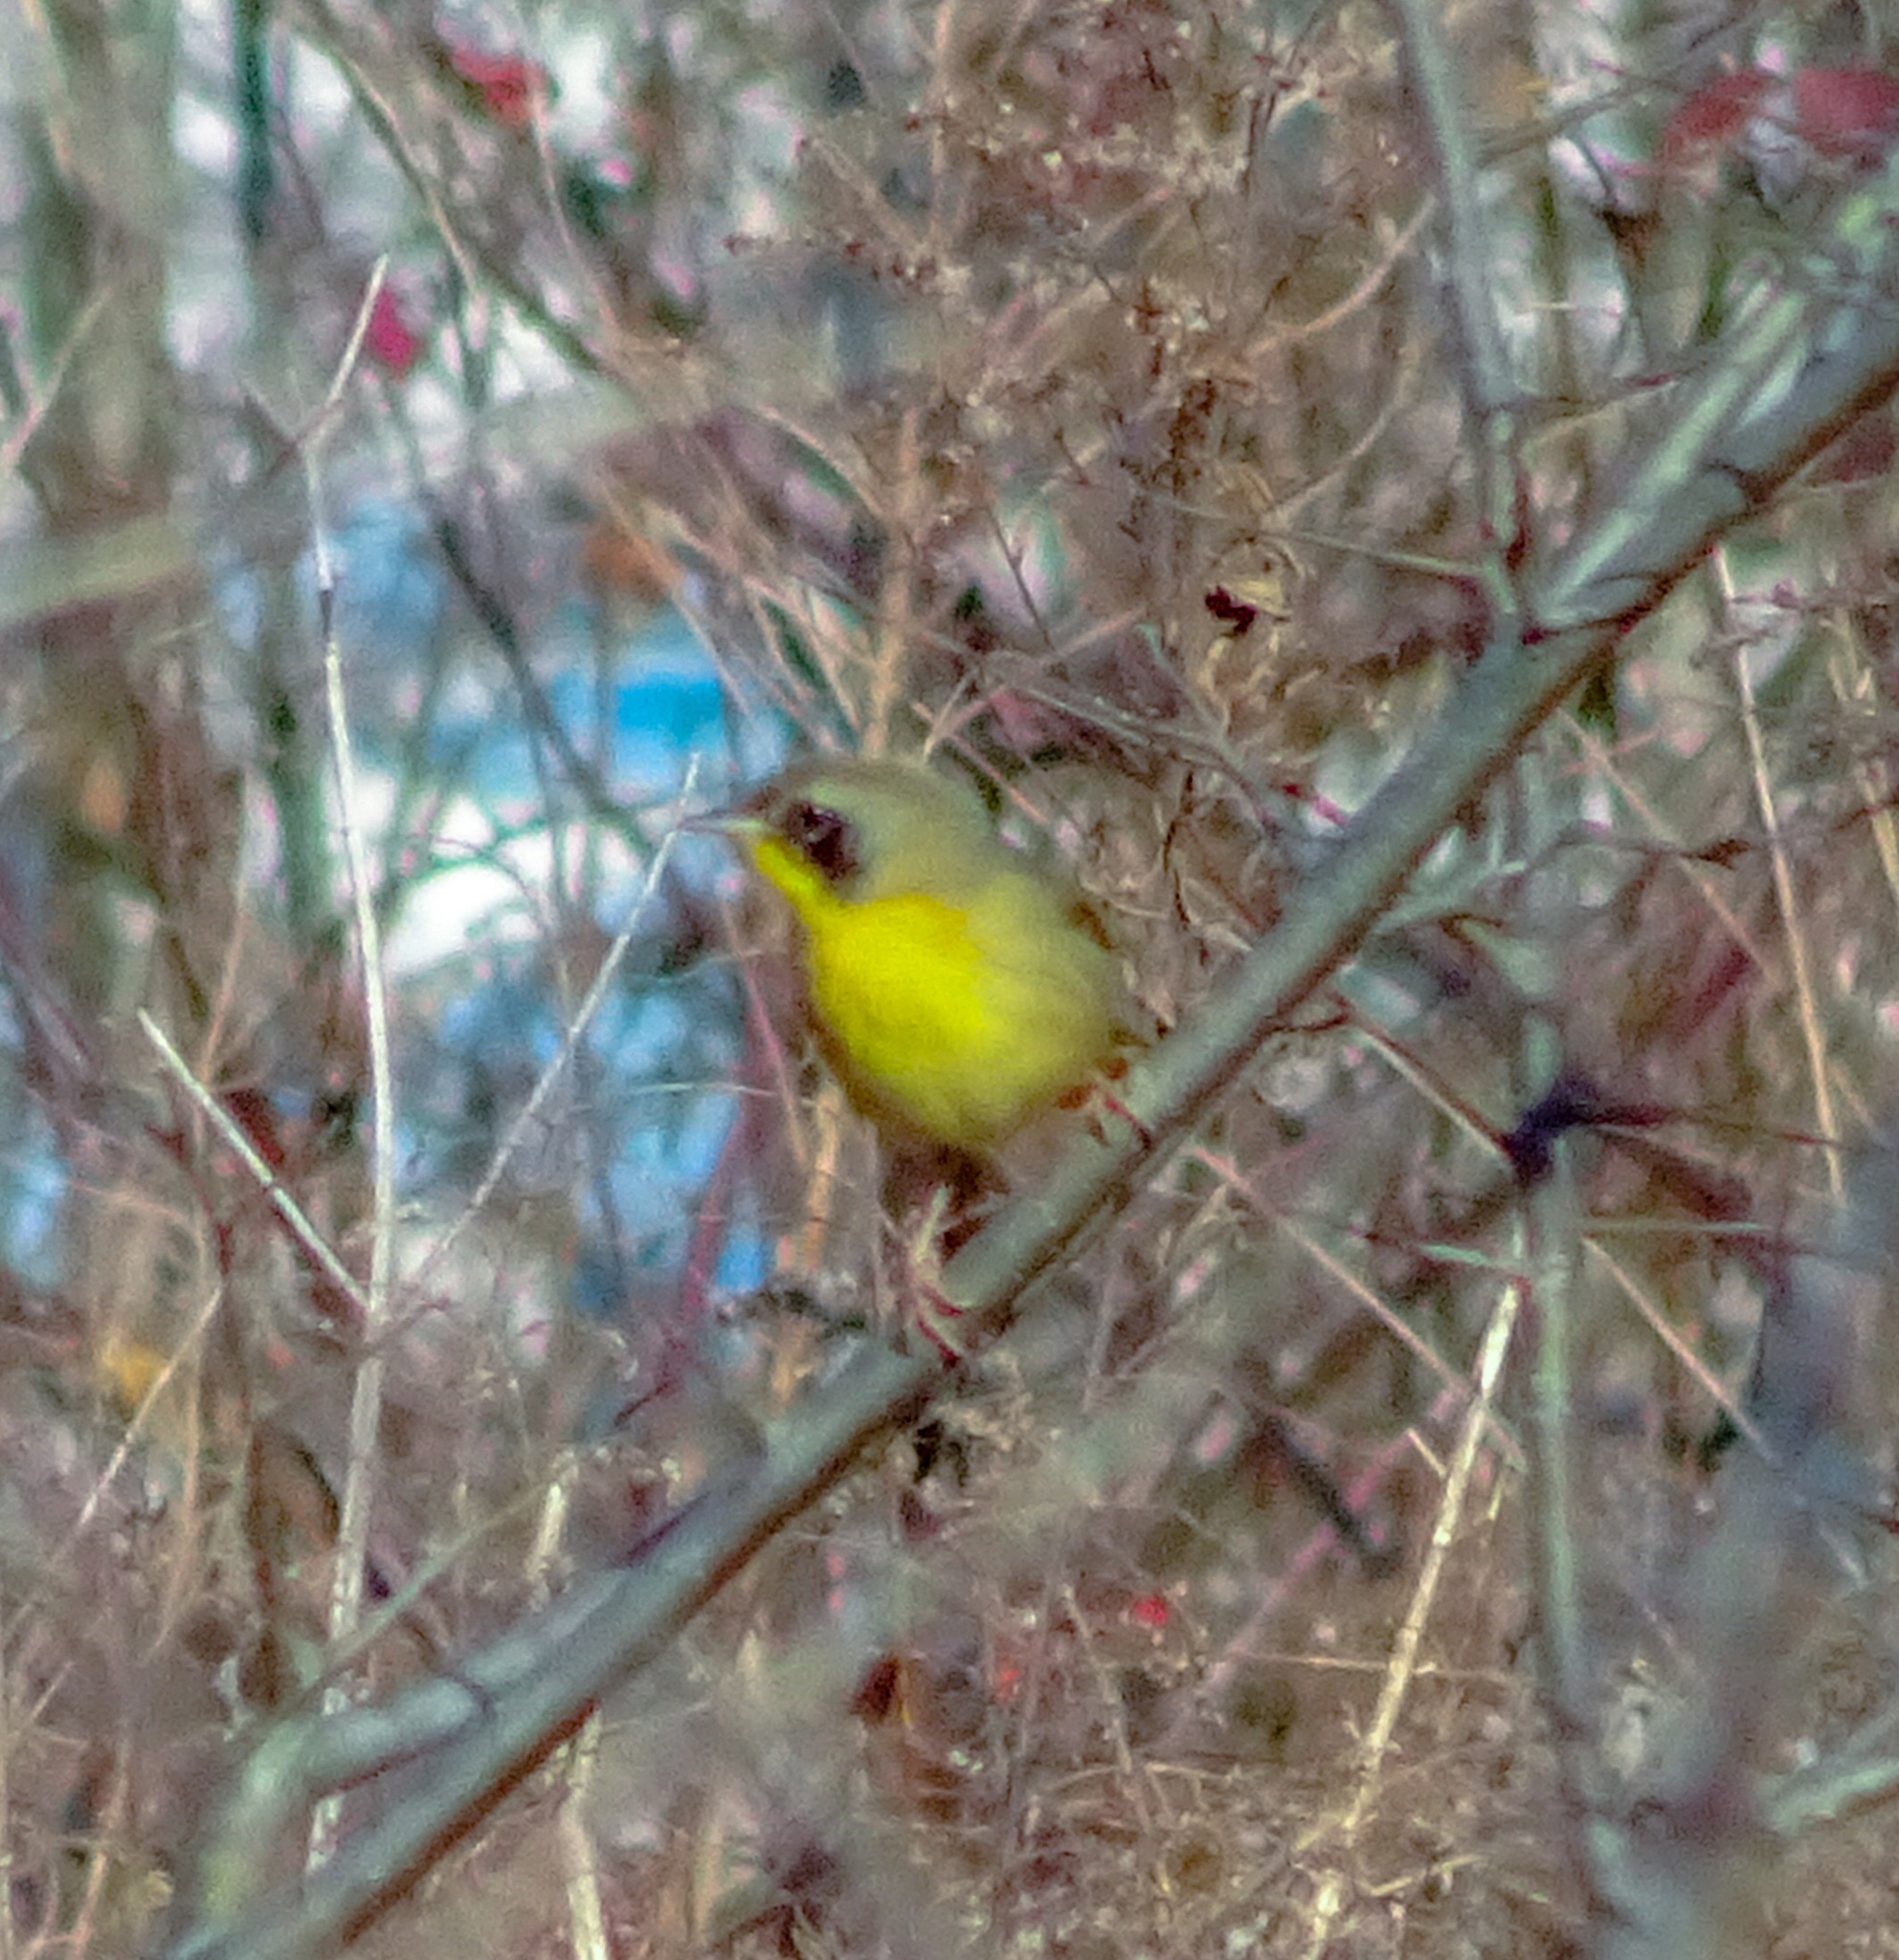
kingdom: Animalia
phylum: Chordata
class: Aves
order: Passeriformes
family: Parulidae
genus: Geothlypis
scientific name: Geothlypis trichas
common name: Common yellowthroat
